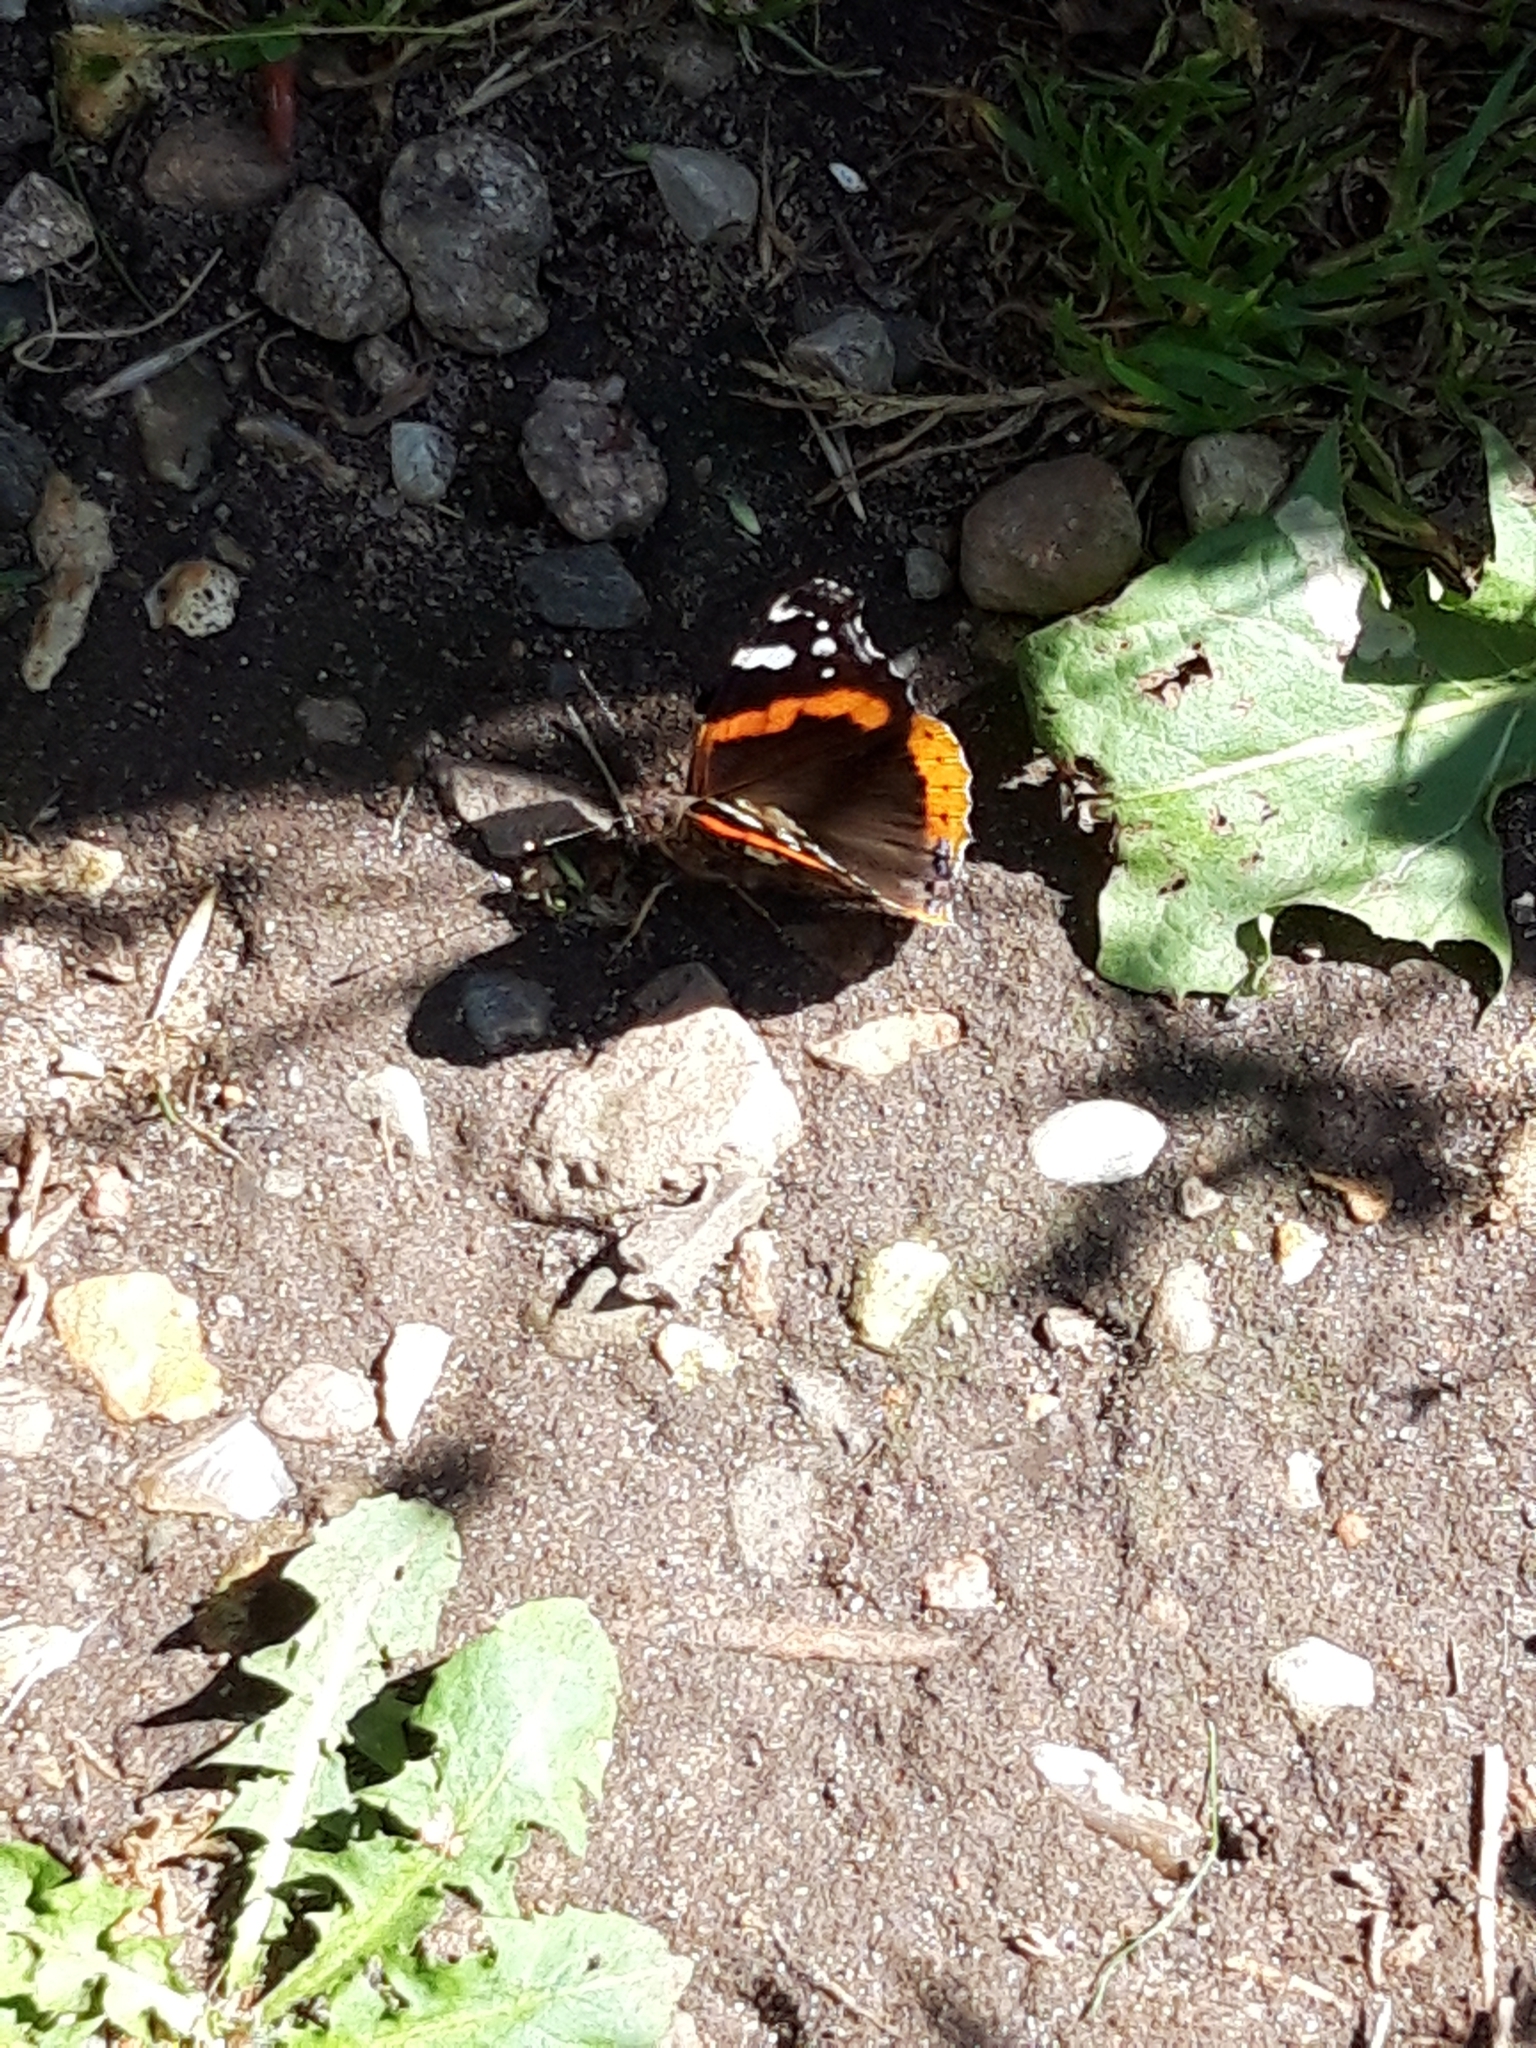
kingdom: Animalia
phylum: Arthropoda
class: Insecta
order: Lepidoptera
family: Nymphalidae
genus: Vanessa
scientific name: Vanessa atalanta
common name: Red admiral
